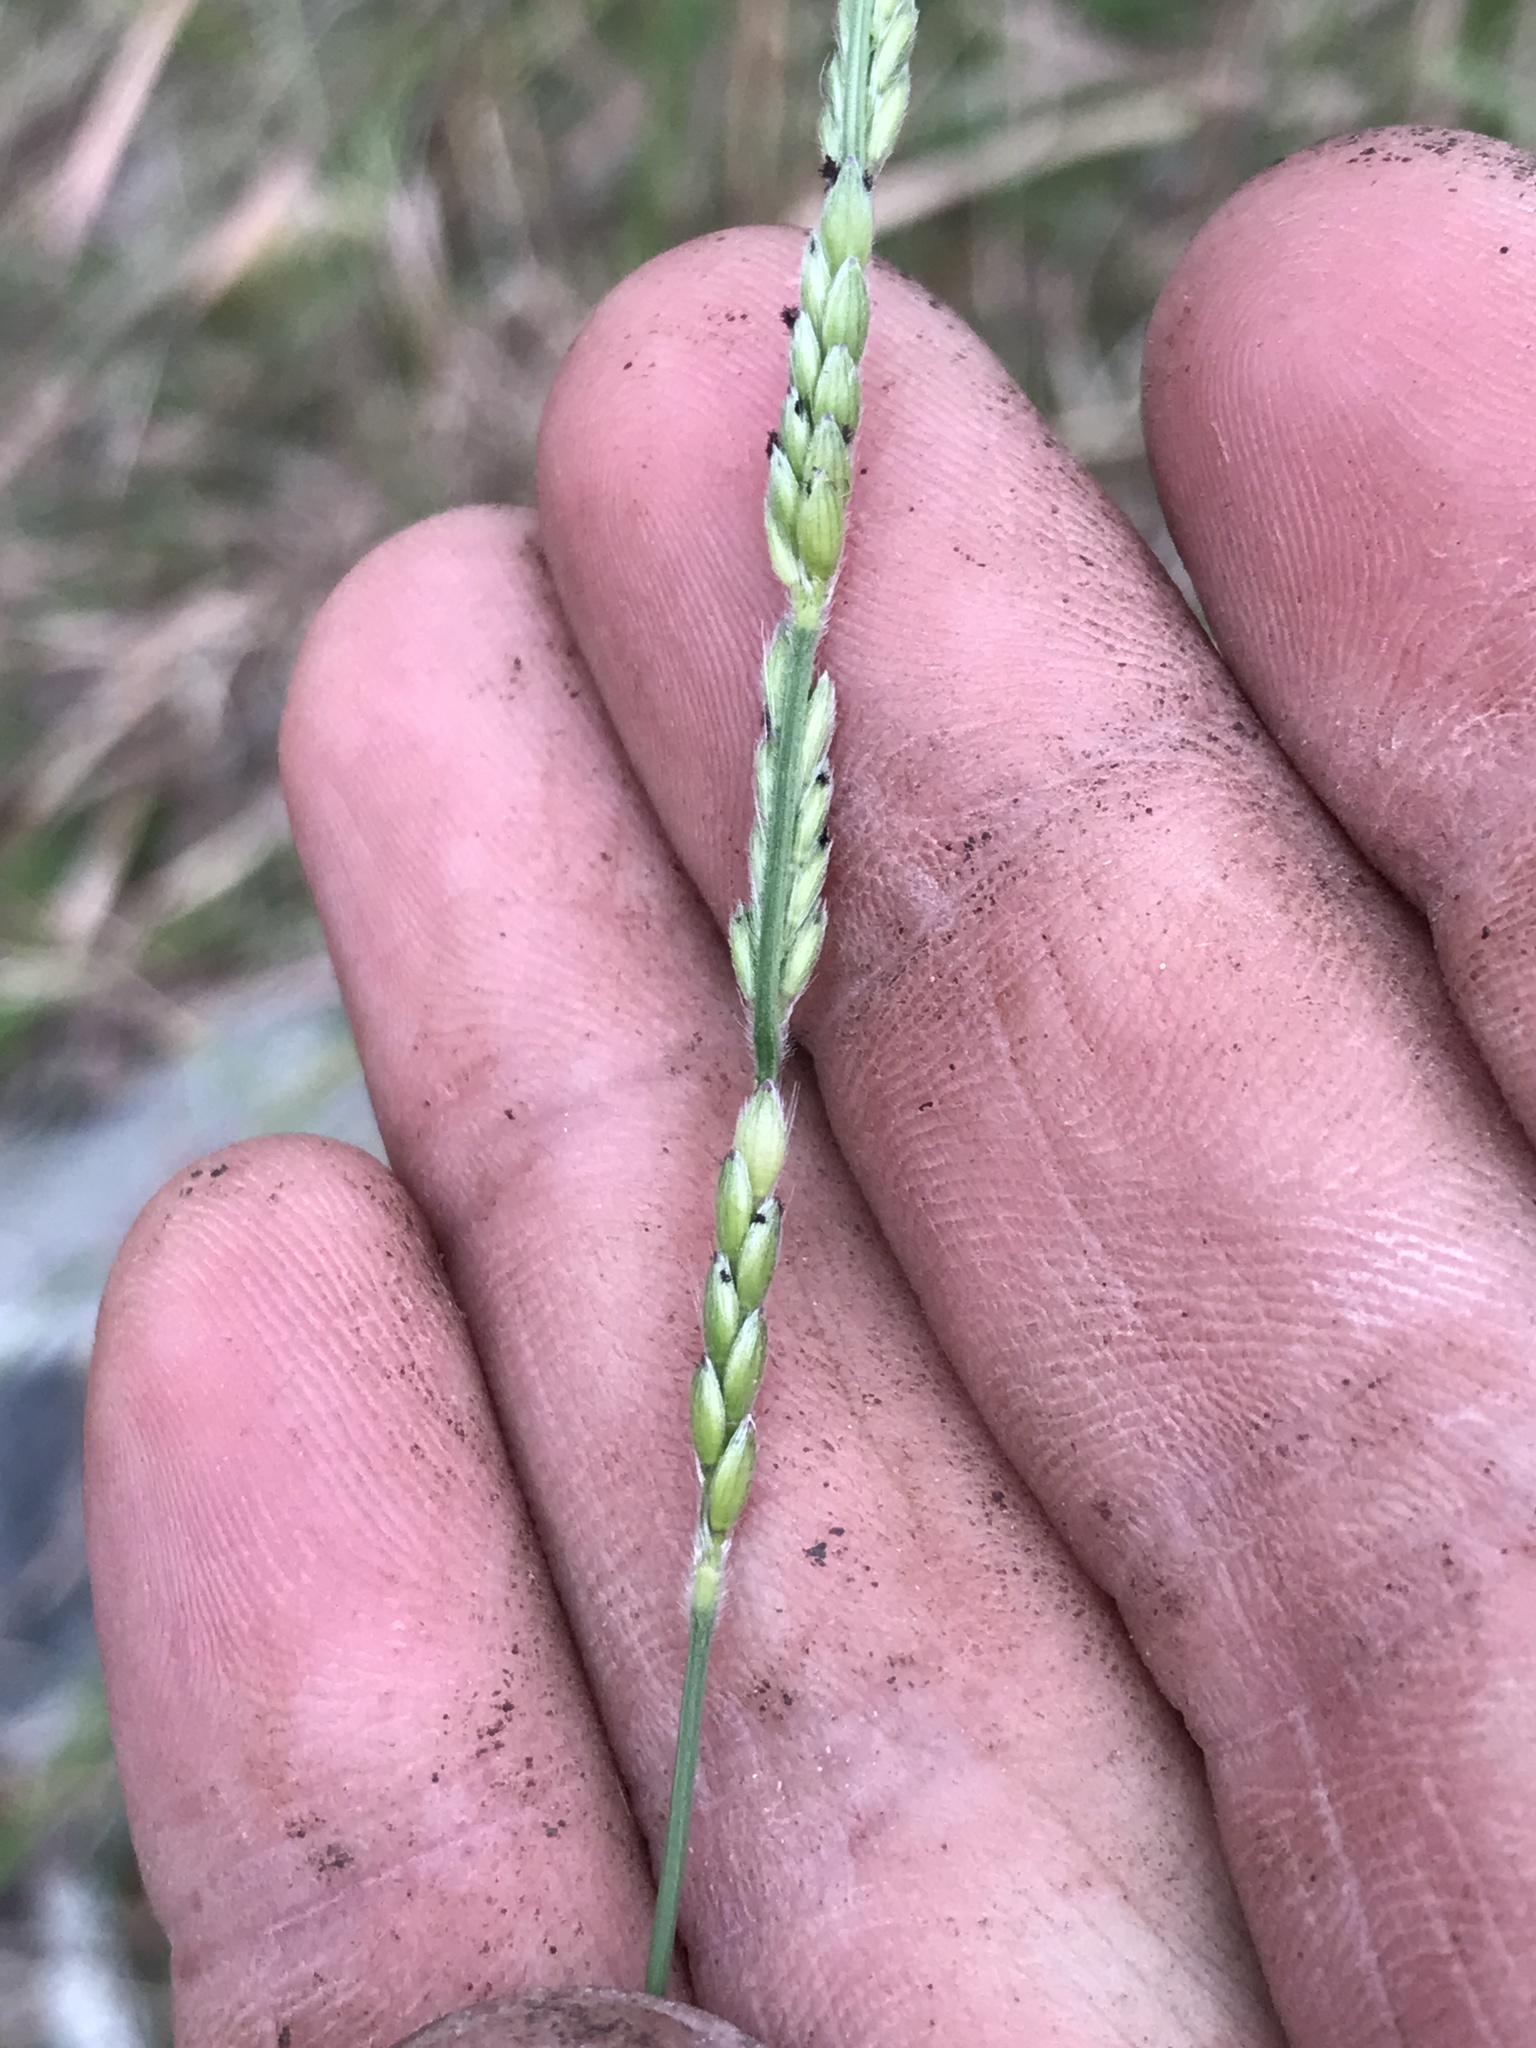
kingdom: Plantae
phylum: Tracheophyta
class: Liliopsida
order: Poales
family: Poaceae
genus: Eriochloa
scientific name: Eriochloa sericea
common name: Texas cup grass
